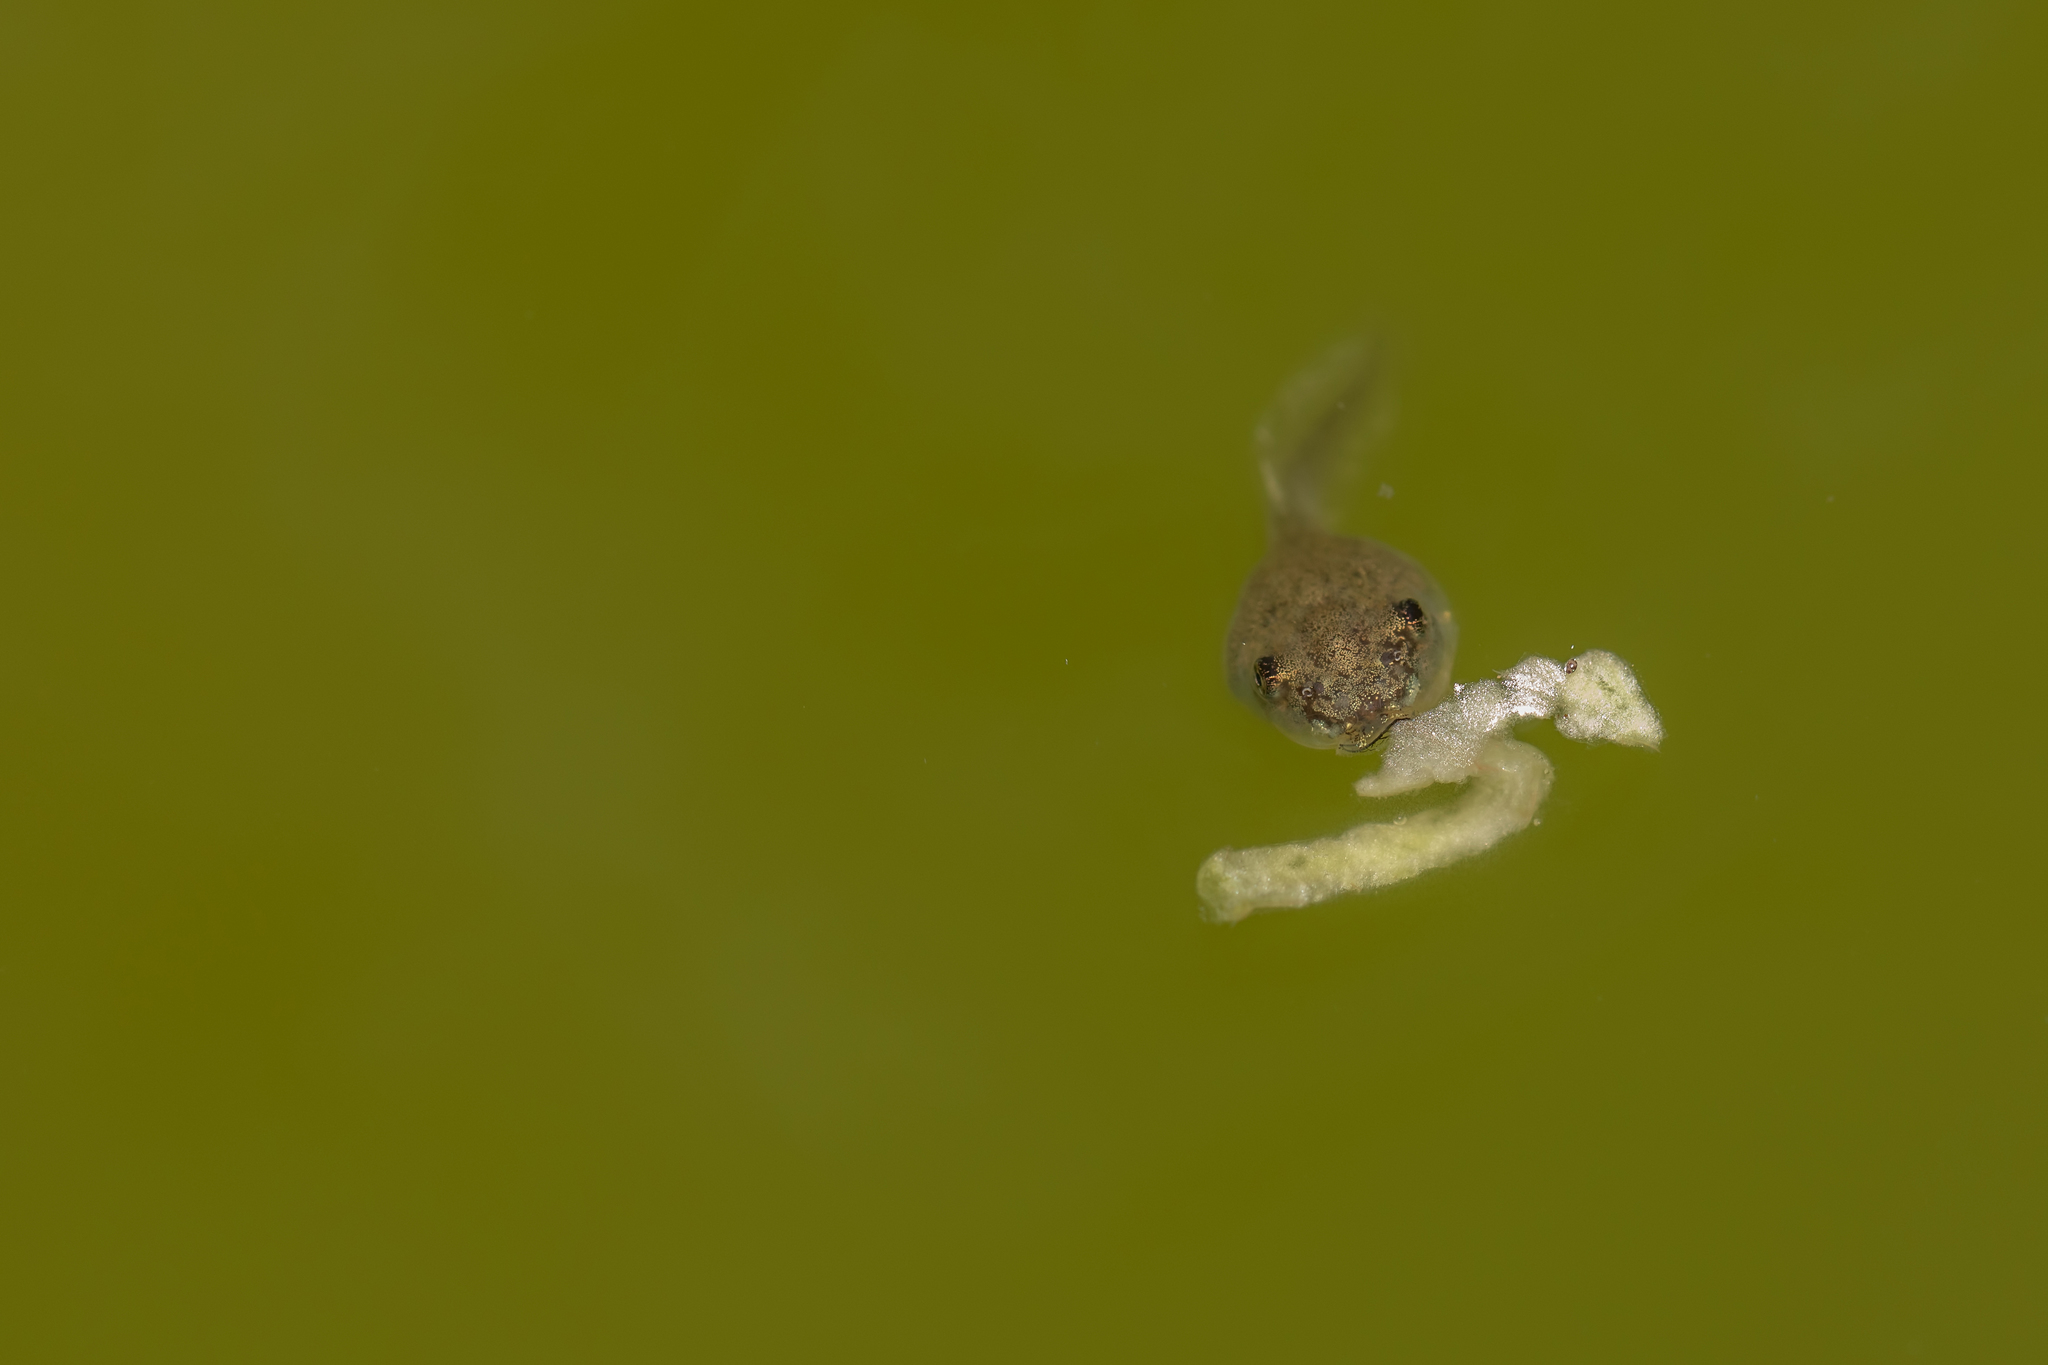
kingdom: Animalia
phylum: Chordata
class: Amphibia
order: Anura
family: Hylidae
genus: Osteopilus
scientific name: Osteopilus septentrionalis
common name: Cuban treefrog
